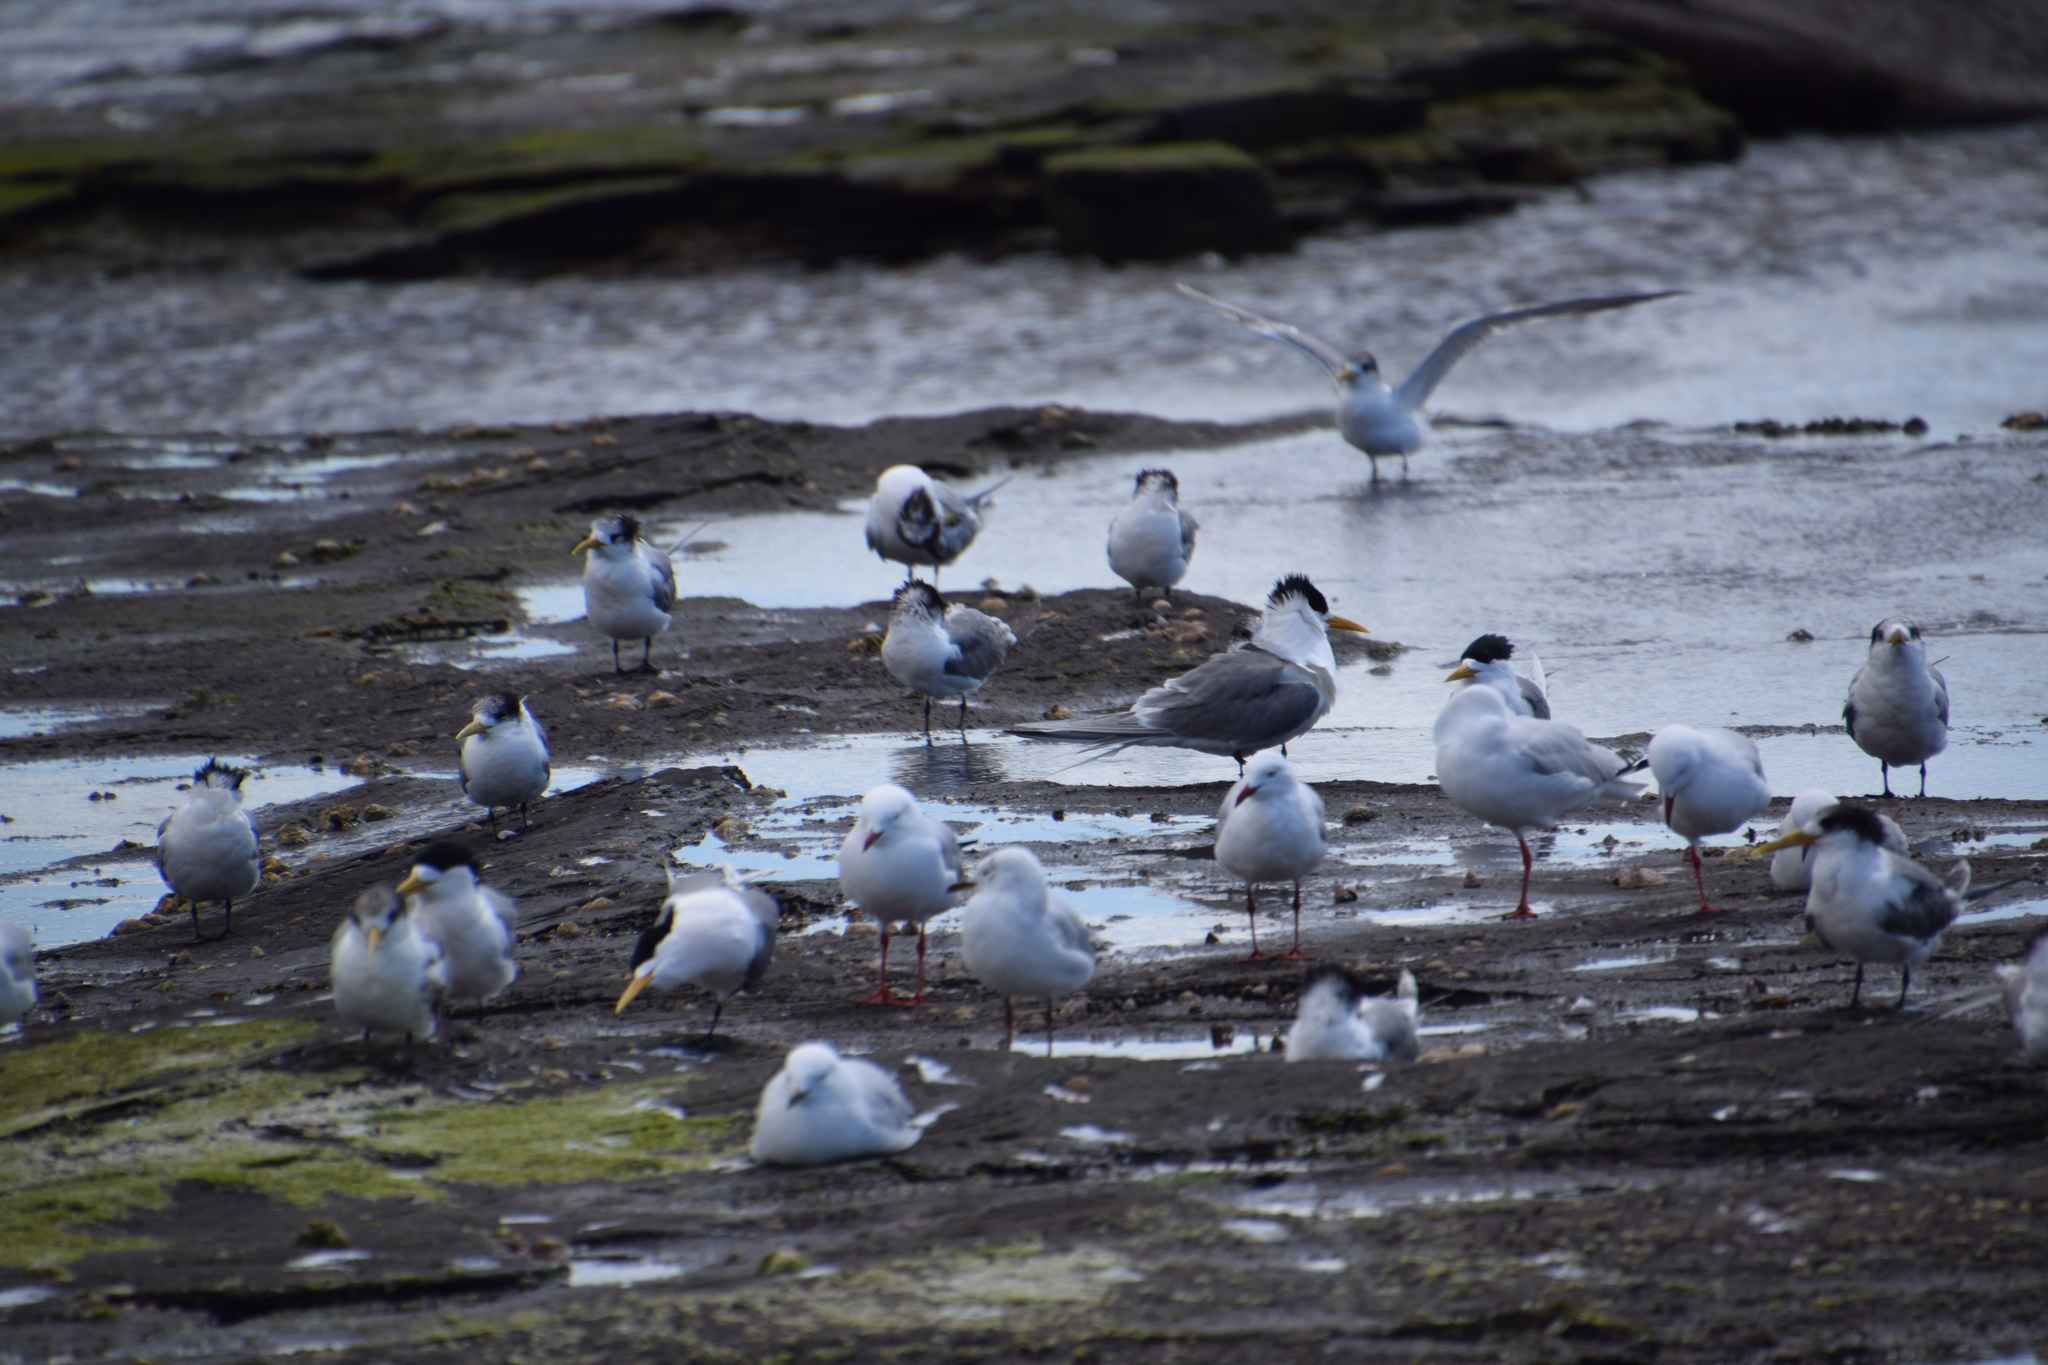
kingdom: Animalia
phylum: Chordata
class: Aves
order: Charadriiformes
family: Laridae
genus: Chroicocephalus
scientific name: Chroicocephalus novaehollandiae
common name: Silver gull
